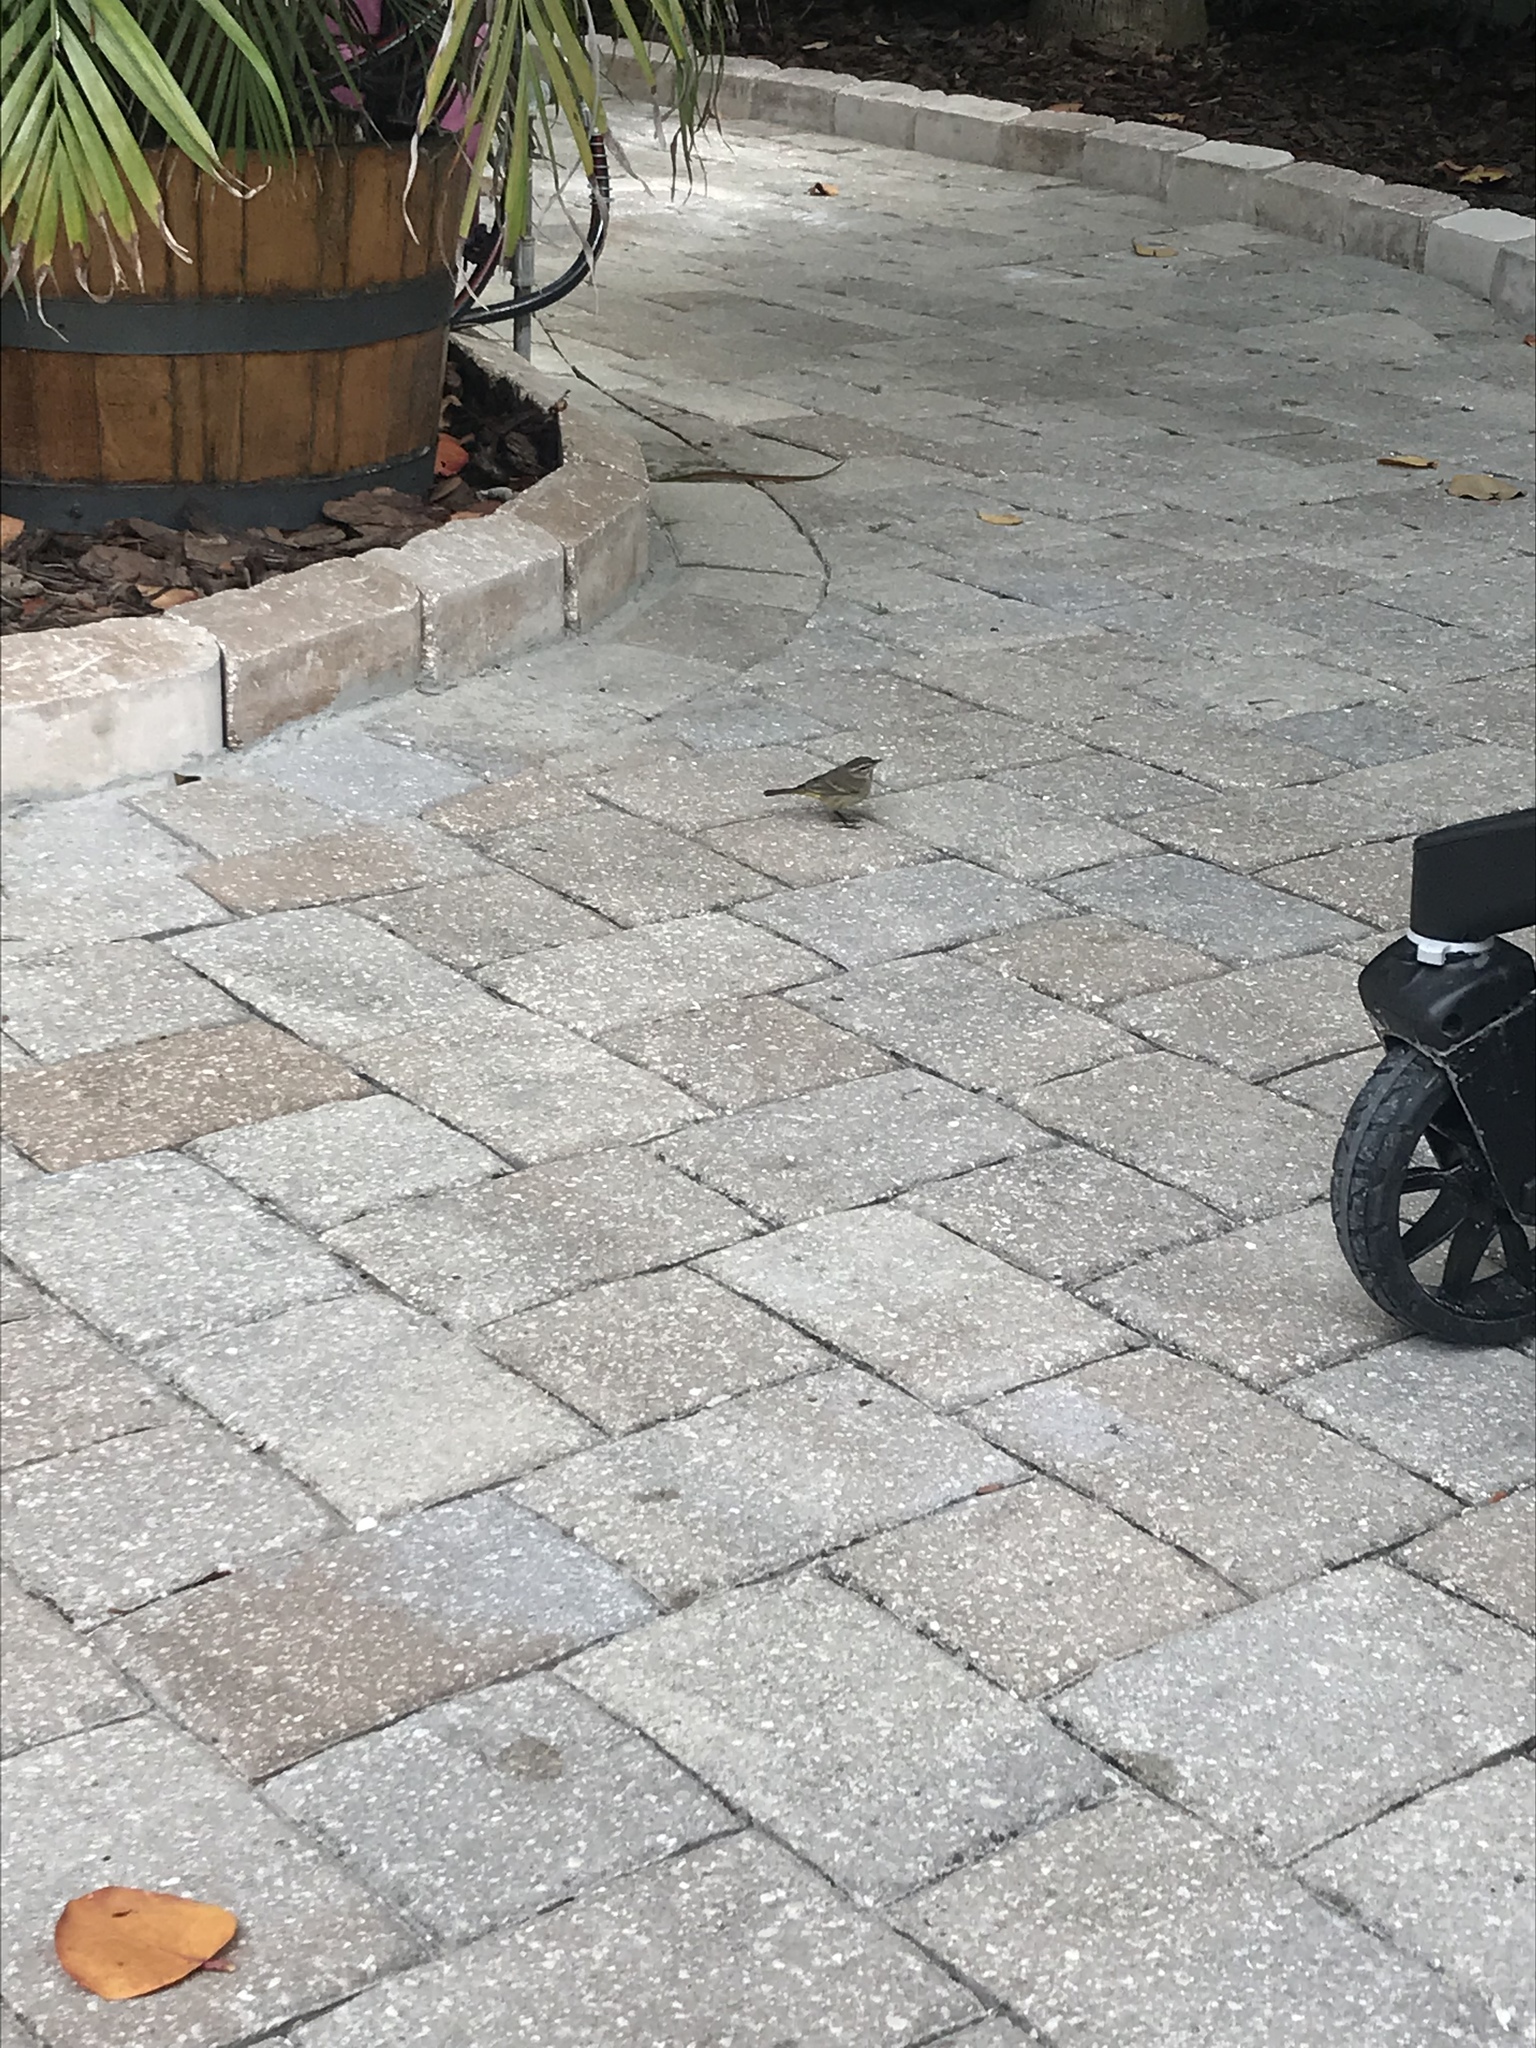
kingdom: Animalia
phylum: Chordata
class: Aves
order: Passeriformes
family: Parulidae
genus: Setophaga
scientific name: Setophaga palmarum
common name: Palm warbler
